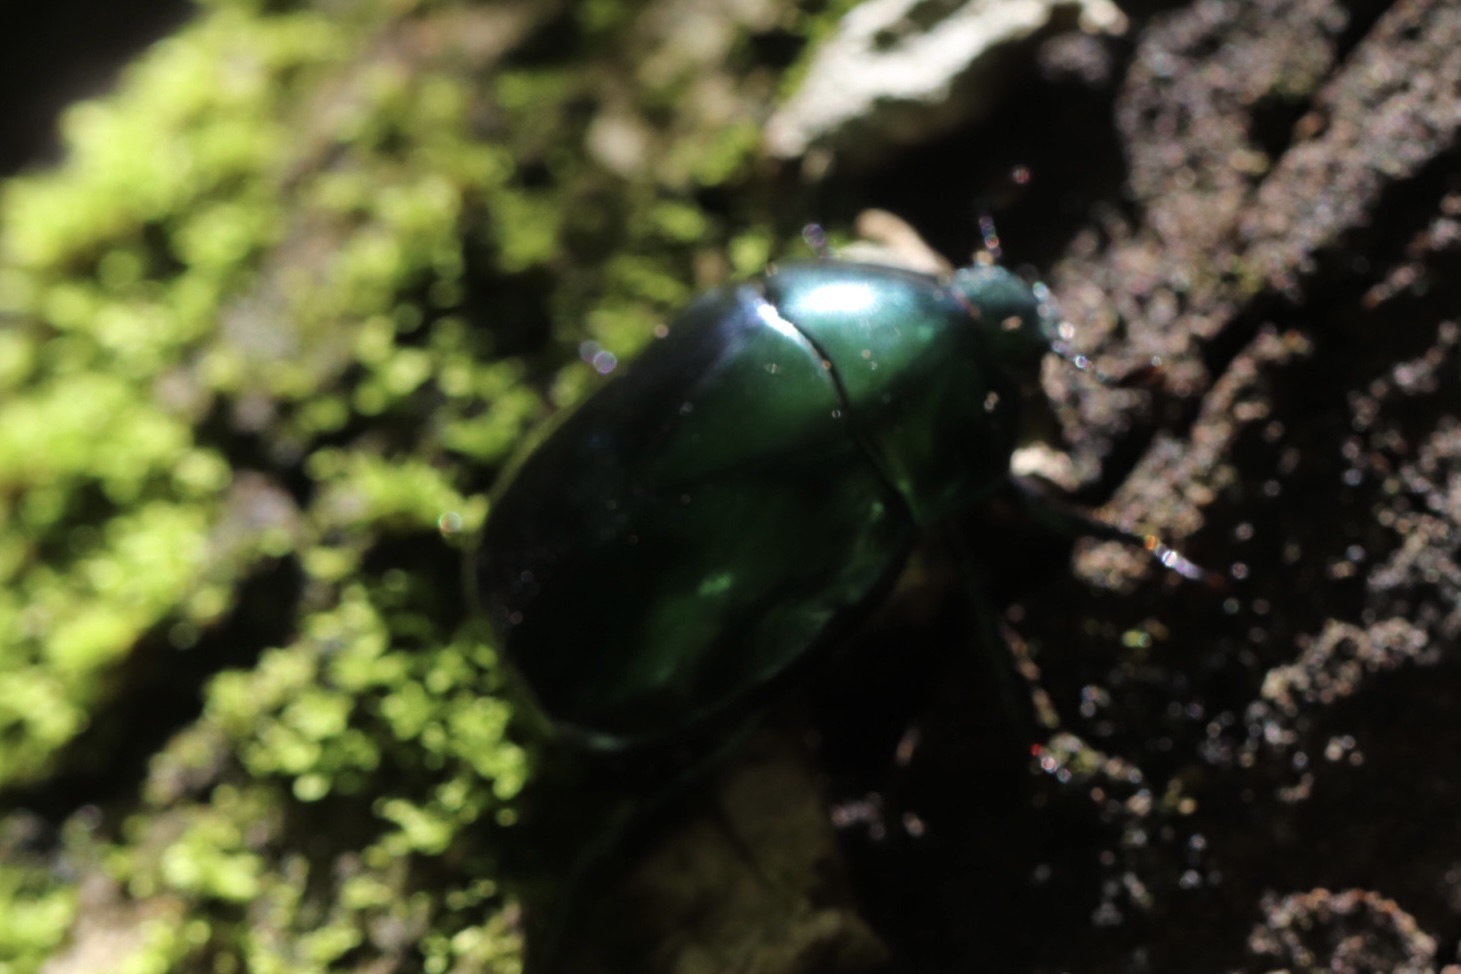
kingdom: Animalia
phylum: Arthropoda
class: Insecta
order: Coleoptera
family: Scarabaeidae
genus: Macraspis
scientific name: Macraspis rufonitida
